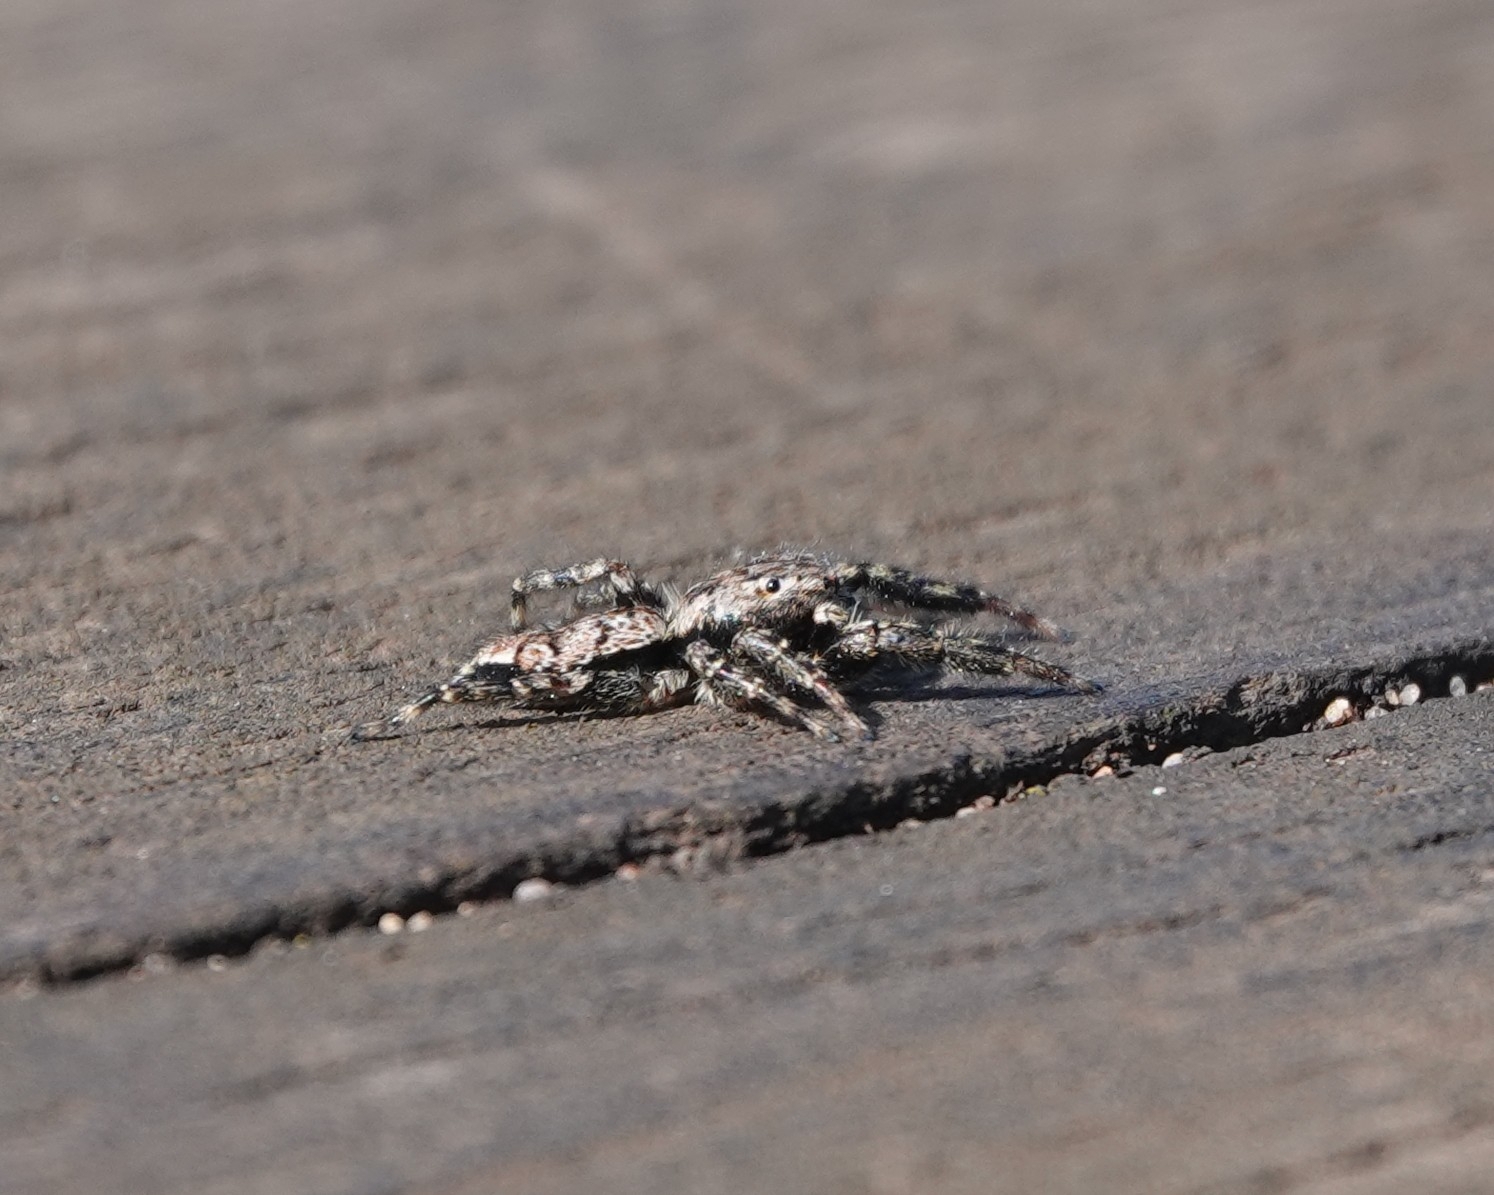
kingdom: Animalia
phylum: Arthropoda
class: Arachnida
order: Araneae
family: Salticidae
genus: Marpissa
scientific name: Marpissa muscosa
